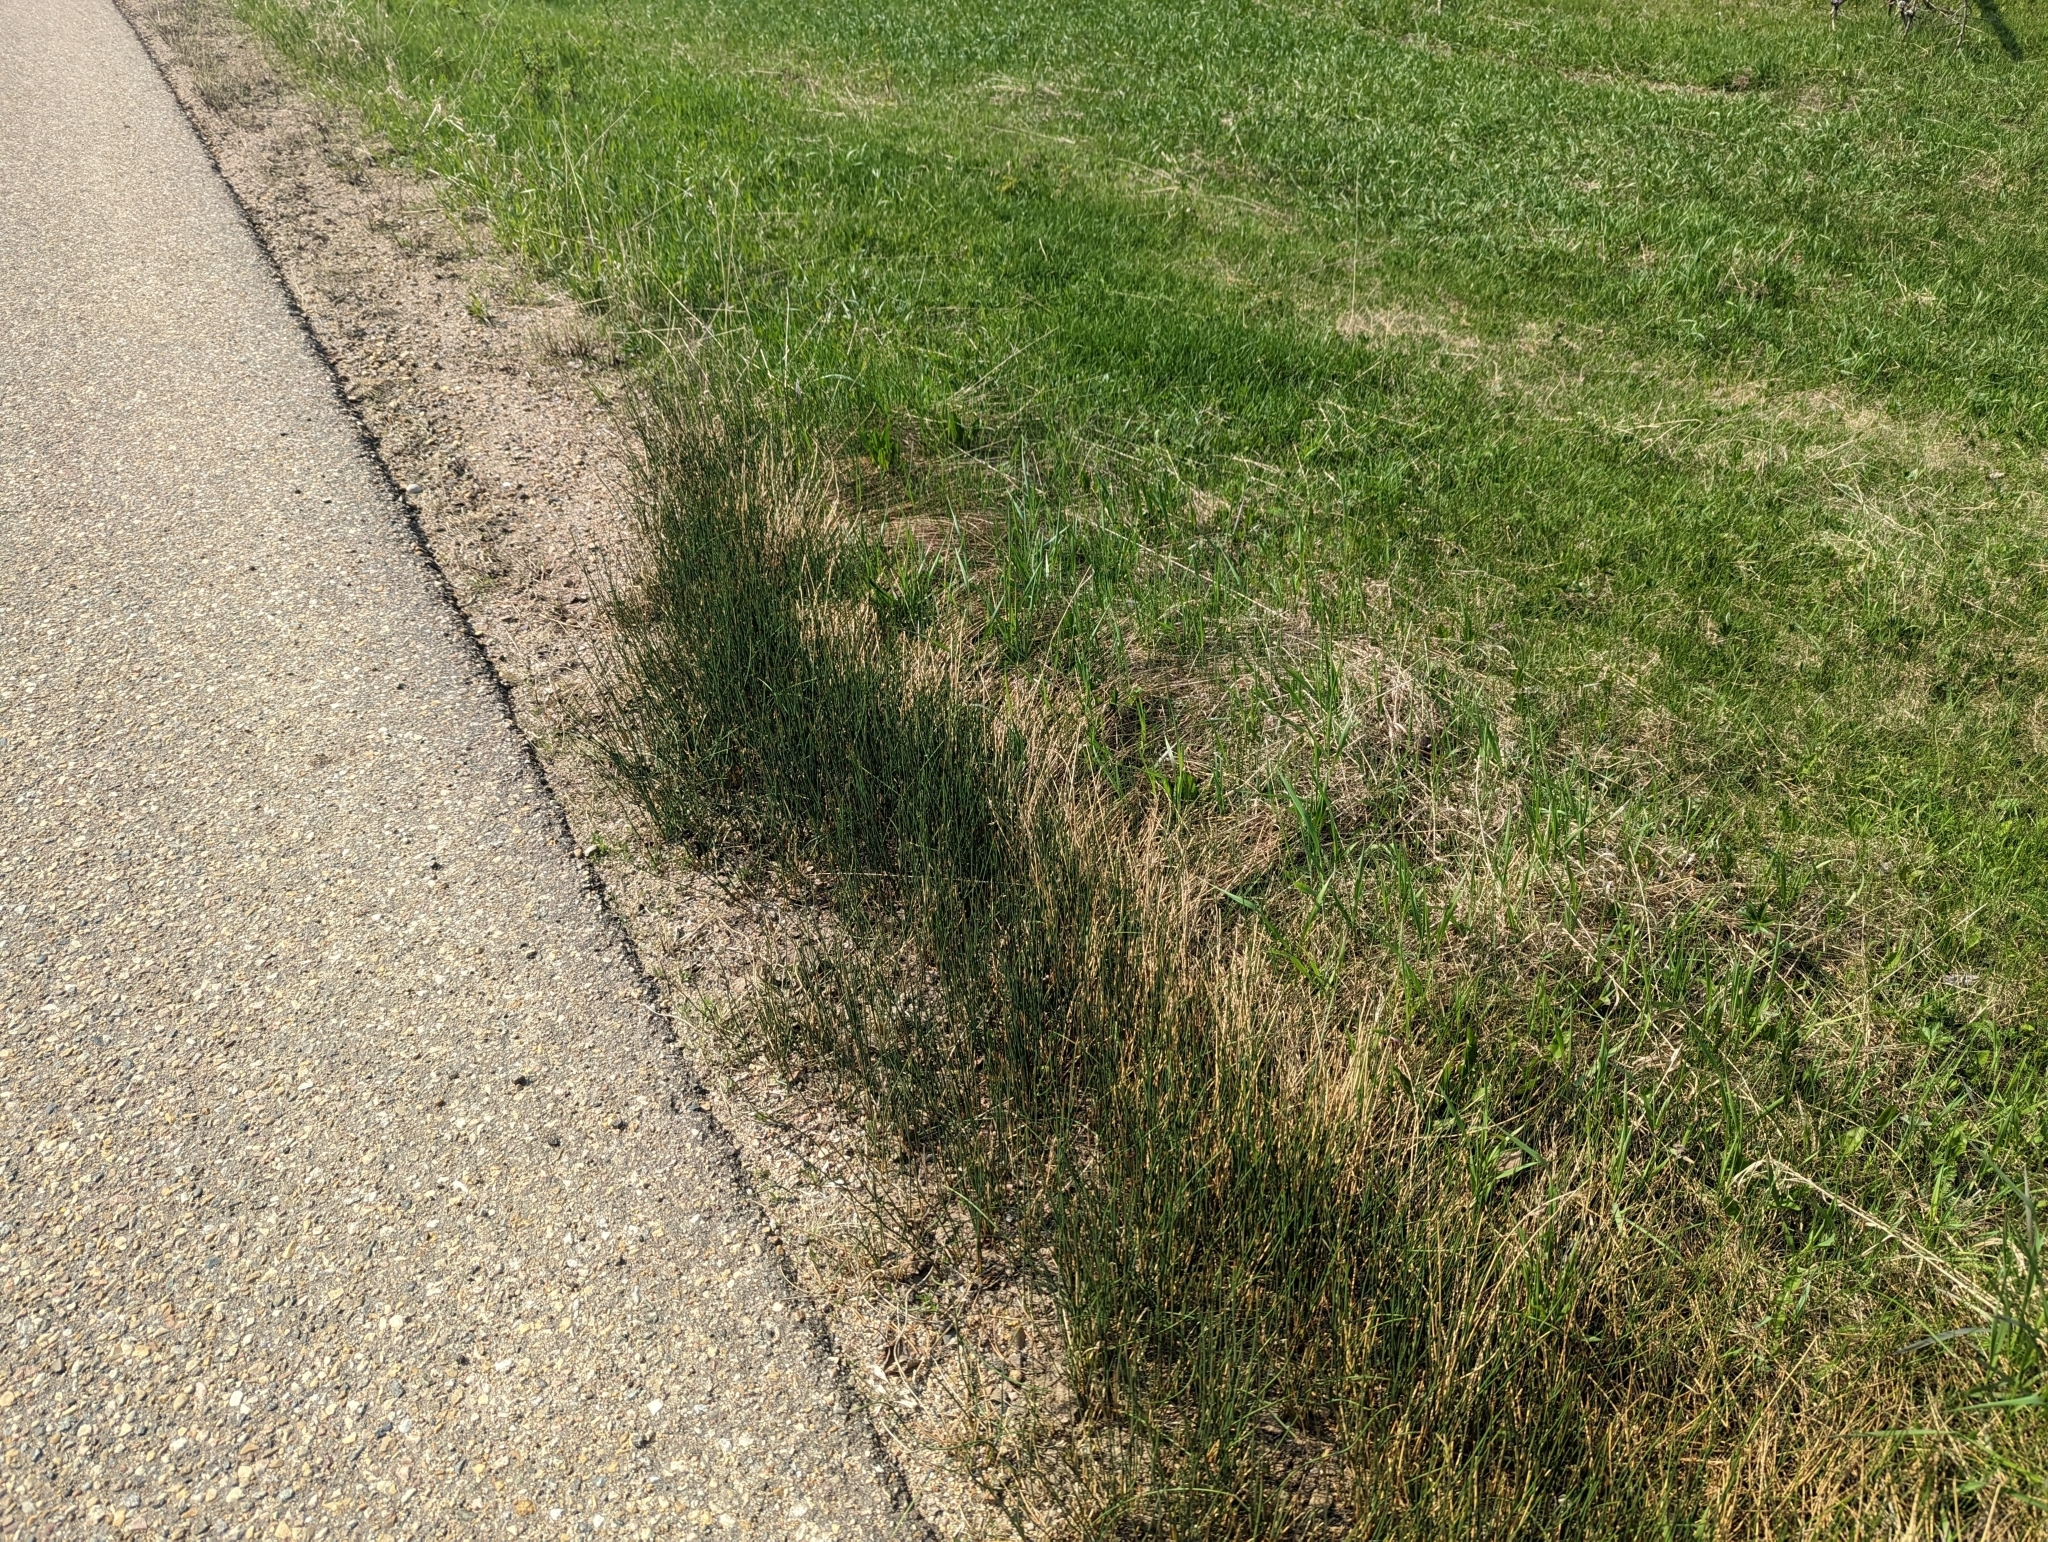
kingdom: Plantae
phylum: Tracheophyta
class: Liliopsida
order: Poales
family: Juncaceae
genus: Juncus
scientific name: Juncus balticus
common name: Baltic rush
